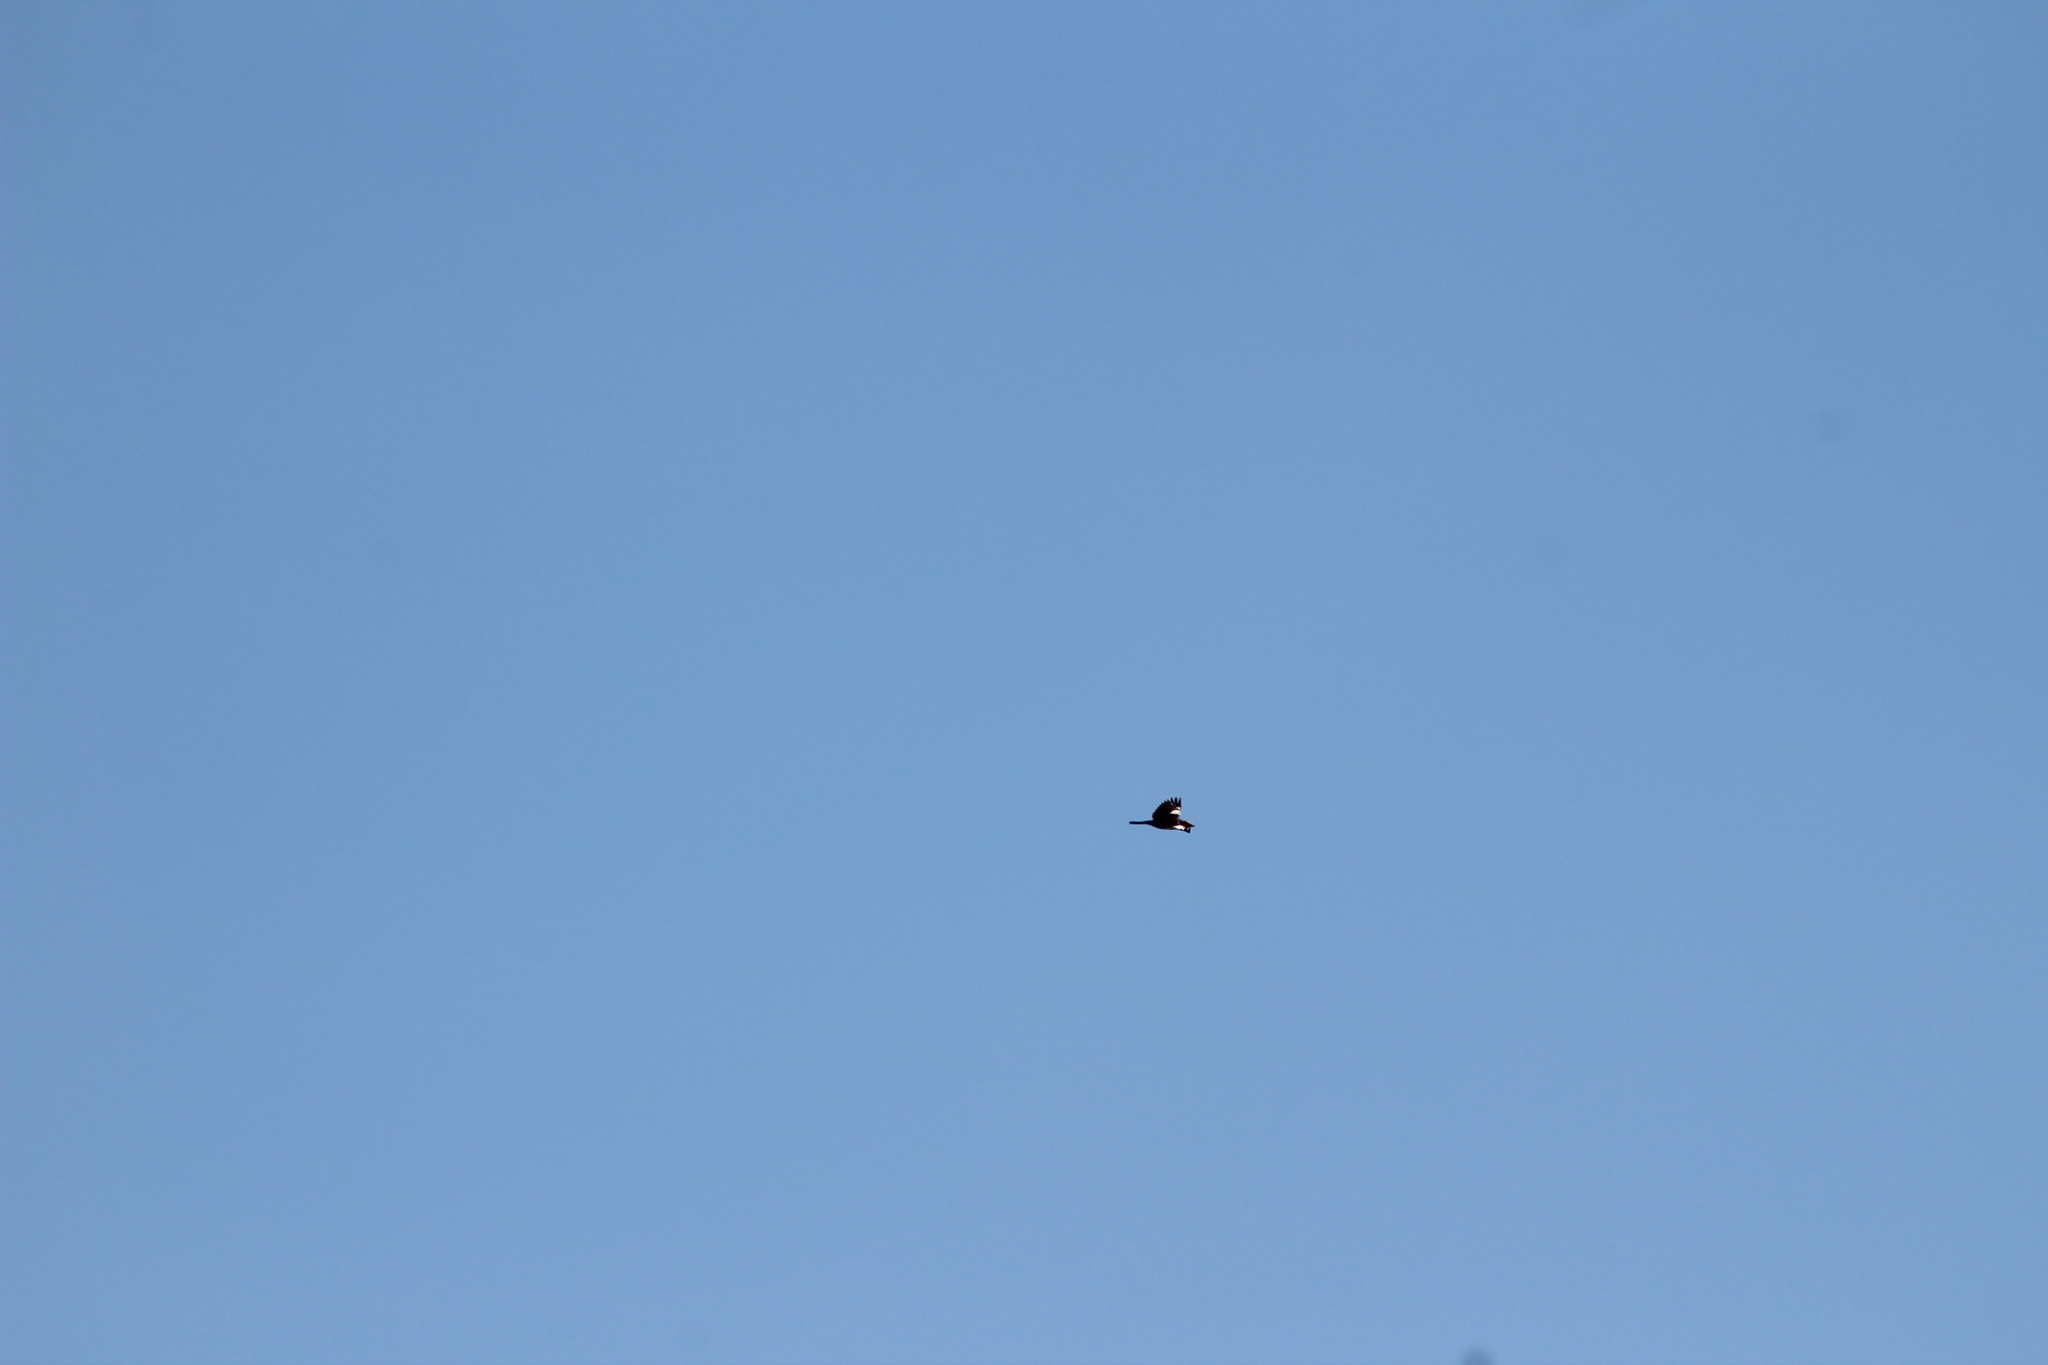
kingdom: Animalia
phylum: Chordata
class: Aves
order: Passeriformes
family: Icteridae
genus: Xanthocephalus
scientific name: Xanthocephalus xanthocephalus
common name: Yellow-headed blackbird
